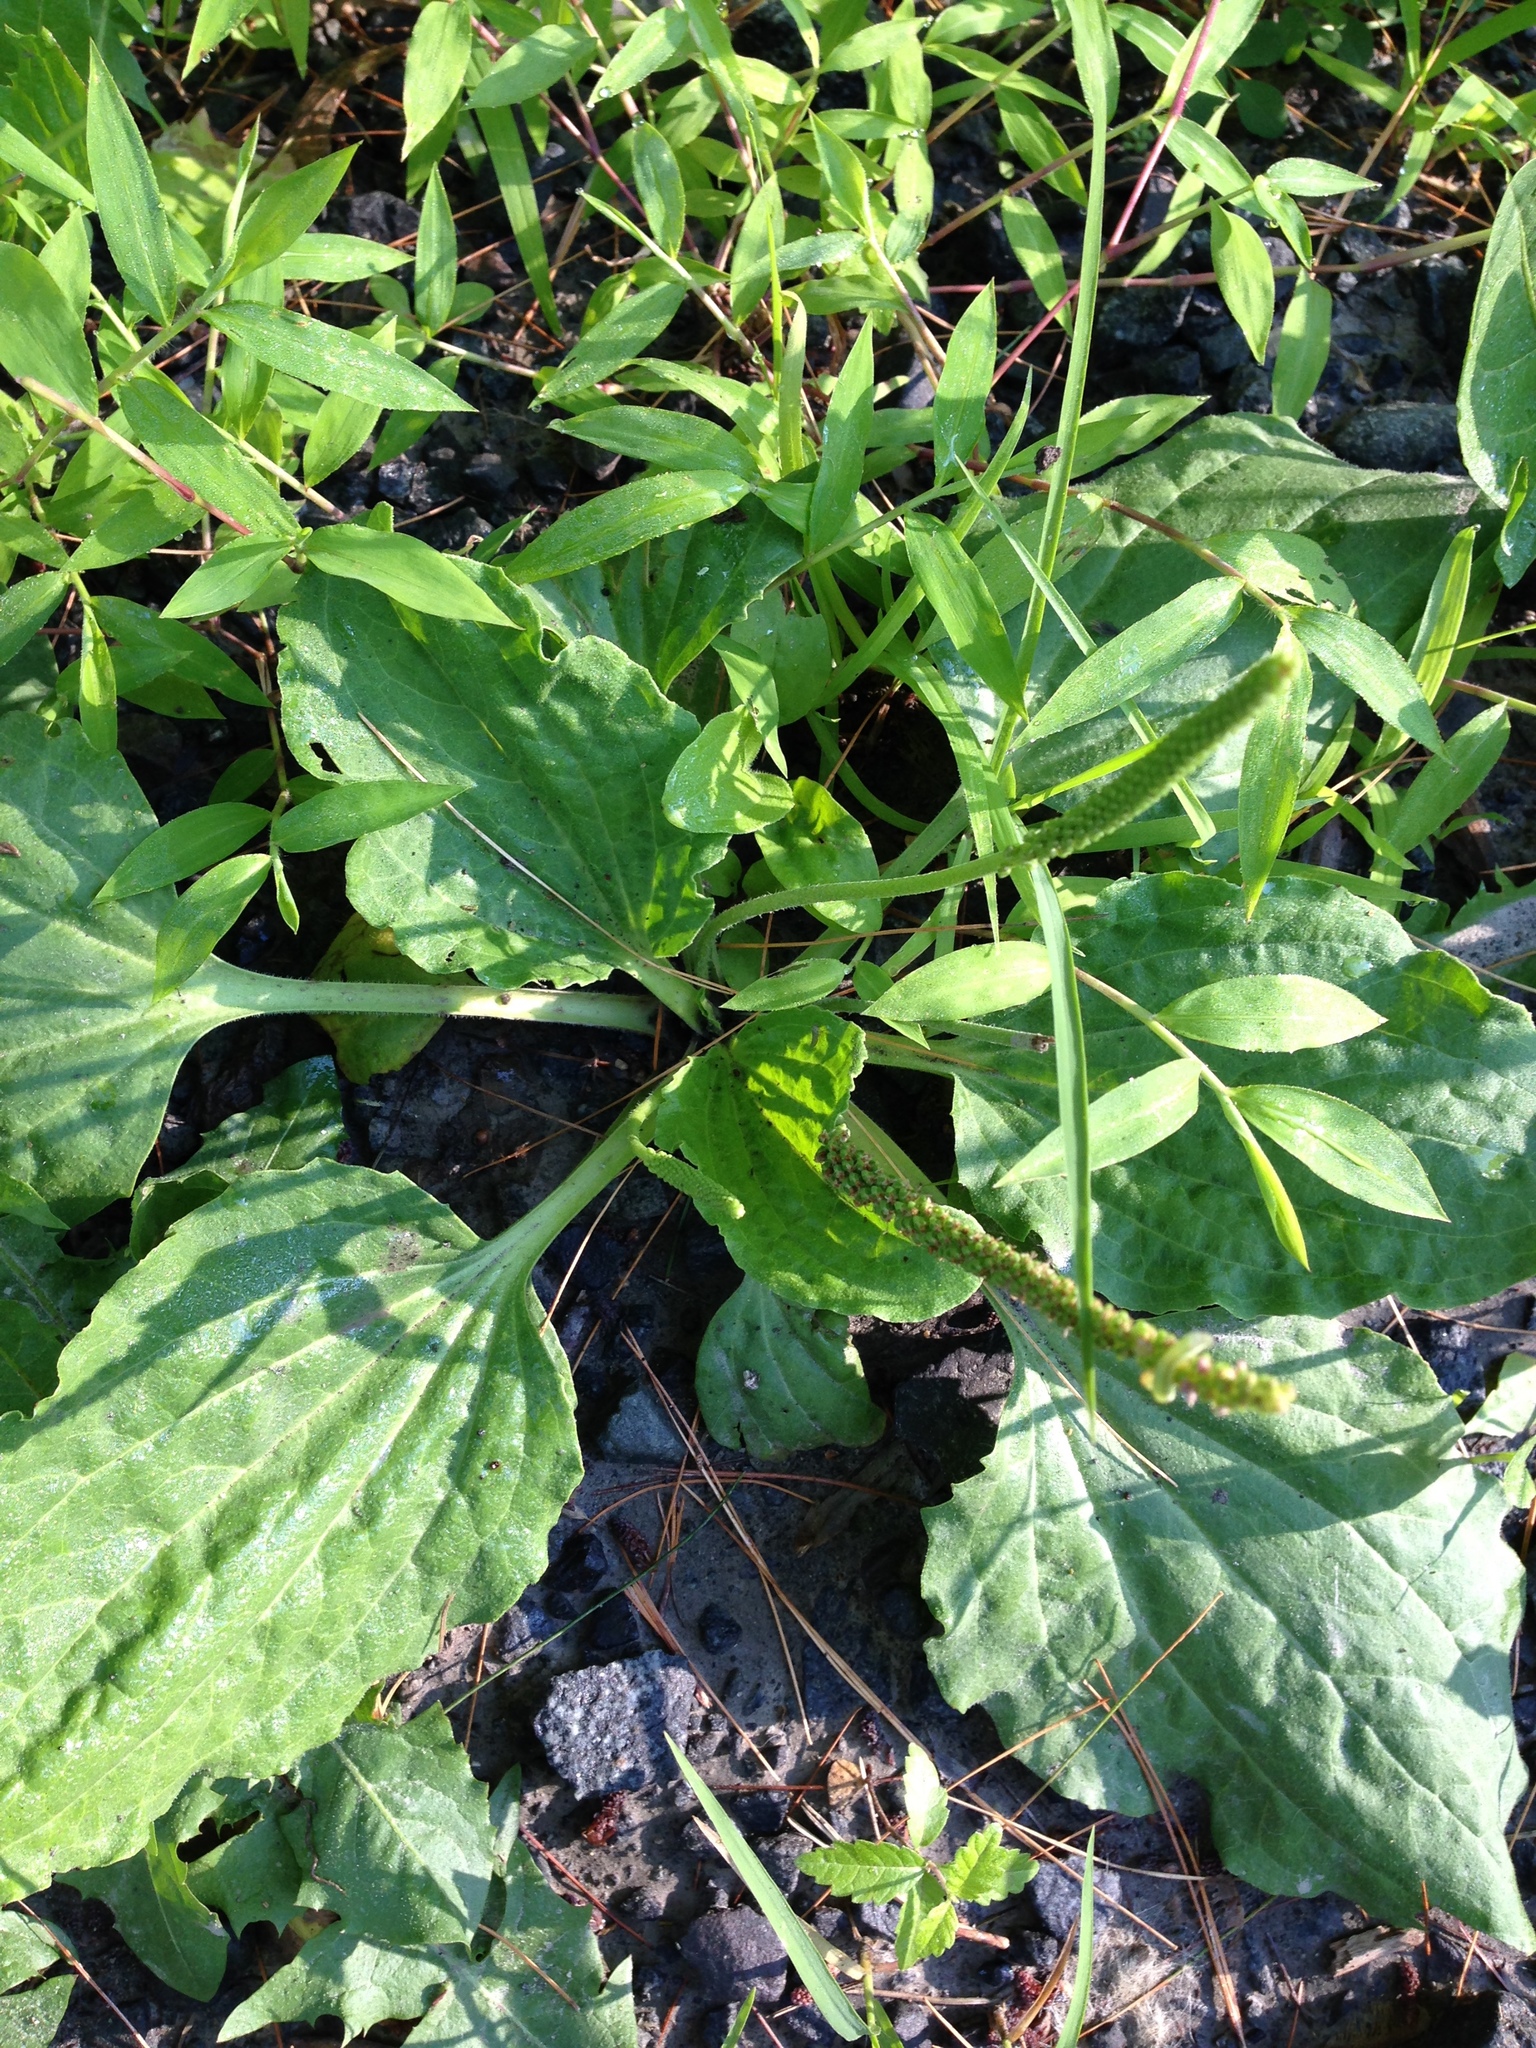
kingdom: Plantae
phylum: Tracheophyta
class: Magnoliopsida
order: Lamiales
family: Plantaginaceae
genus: Plantago
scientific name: Plantago major
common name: Common plantain
